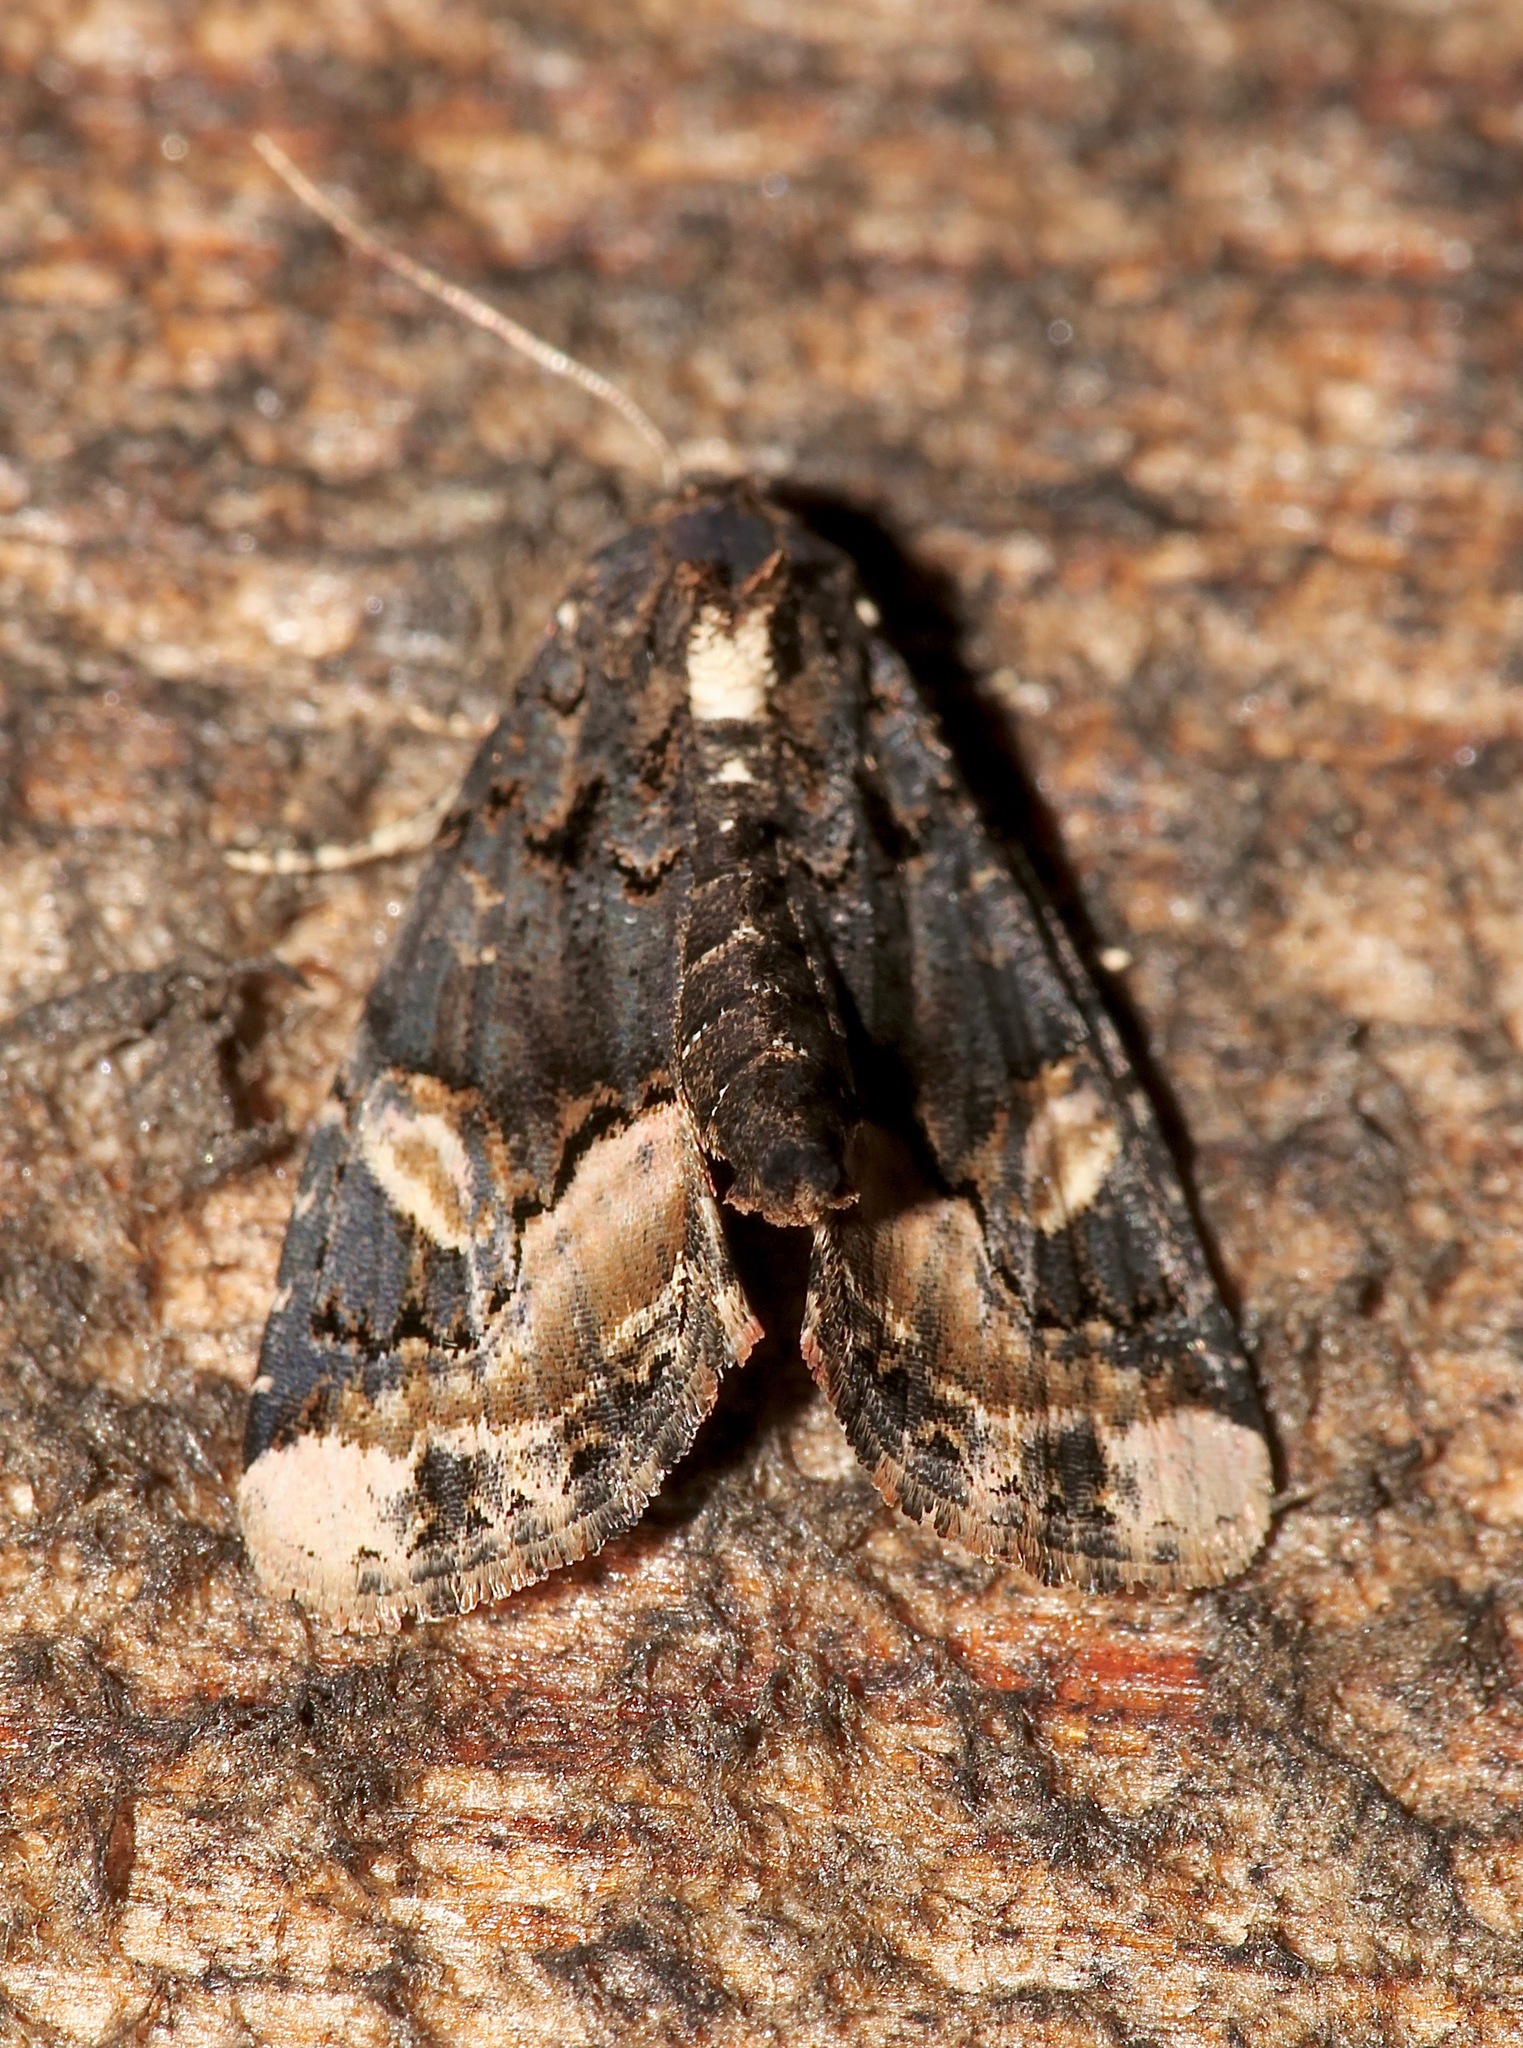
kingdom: Animalia
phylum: Arthropoda
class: Insecta
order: Lepidoptera
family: Noctuidae
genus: Homophoberia
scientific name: Homophoberia apicosa
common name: Black wedge-spot
